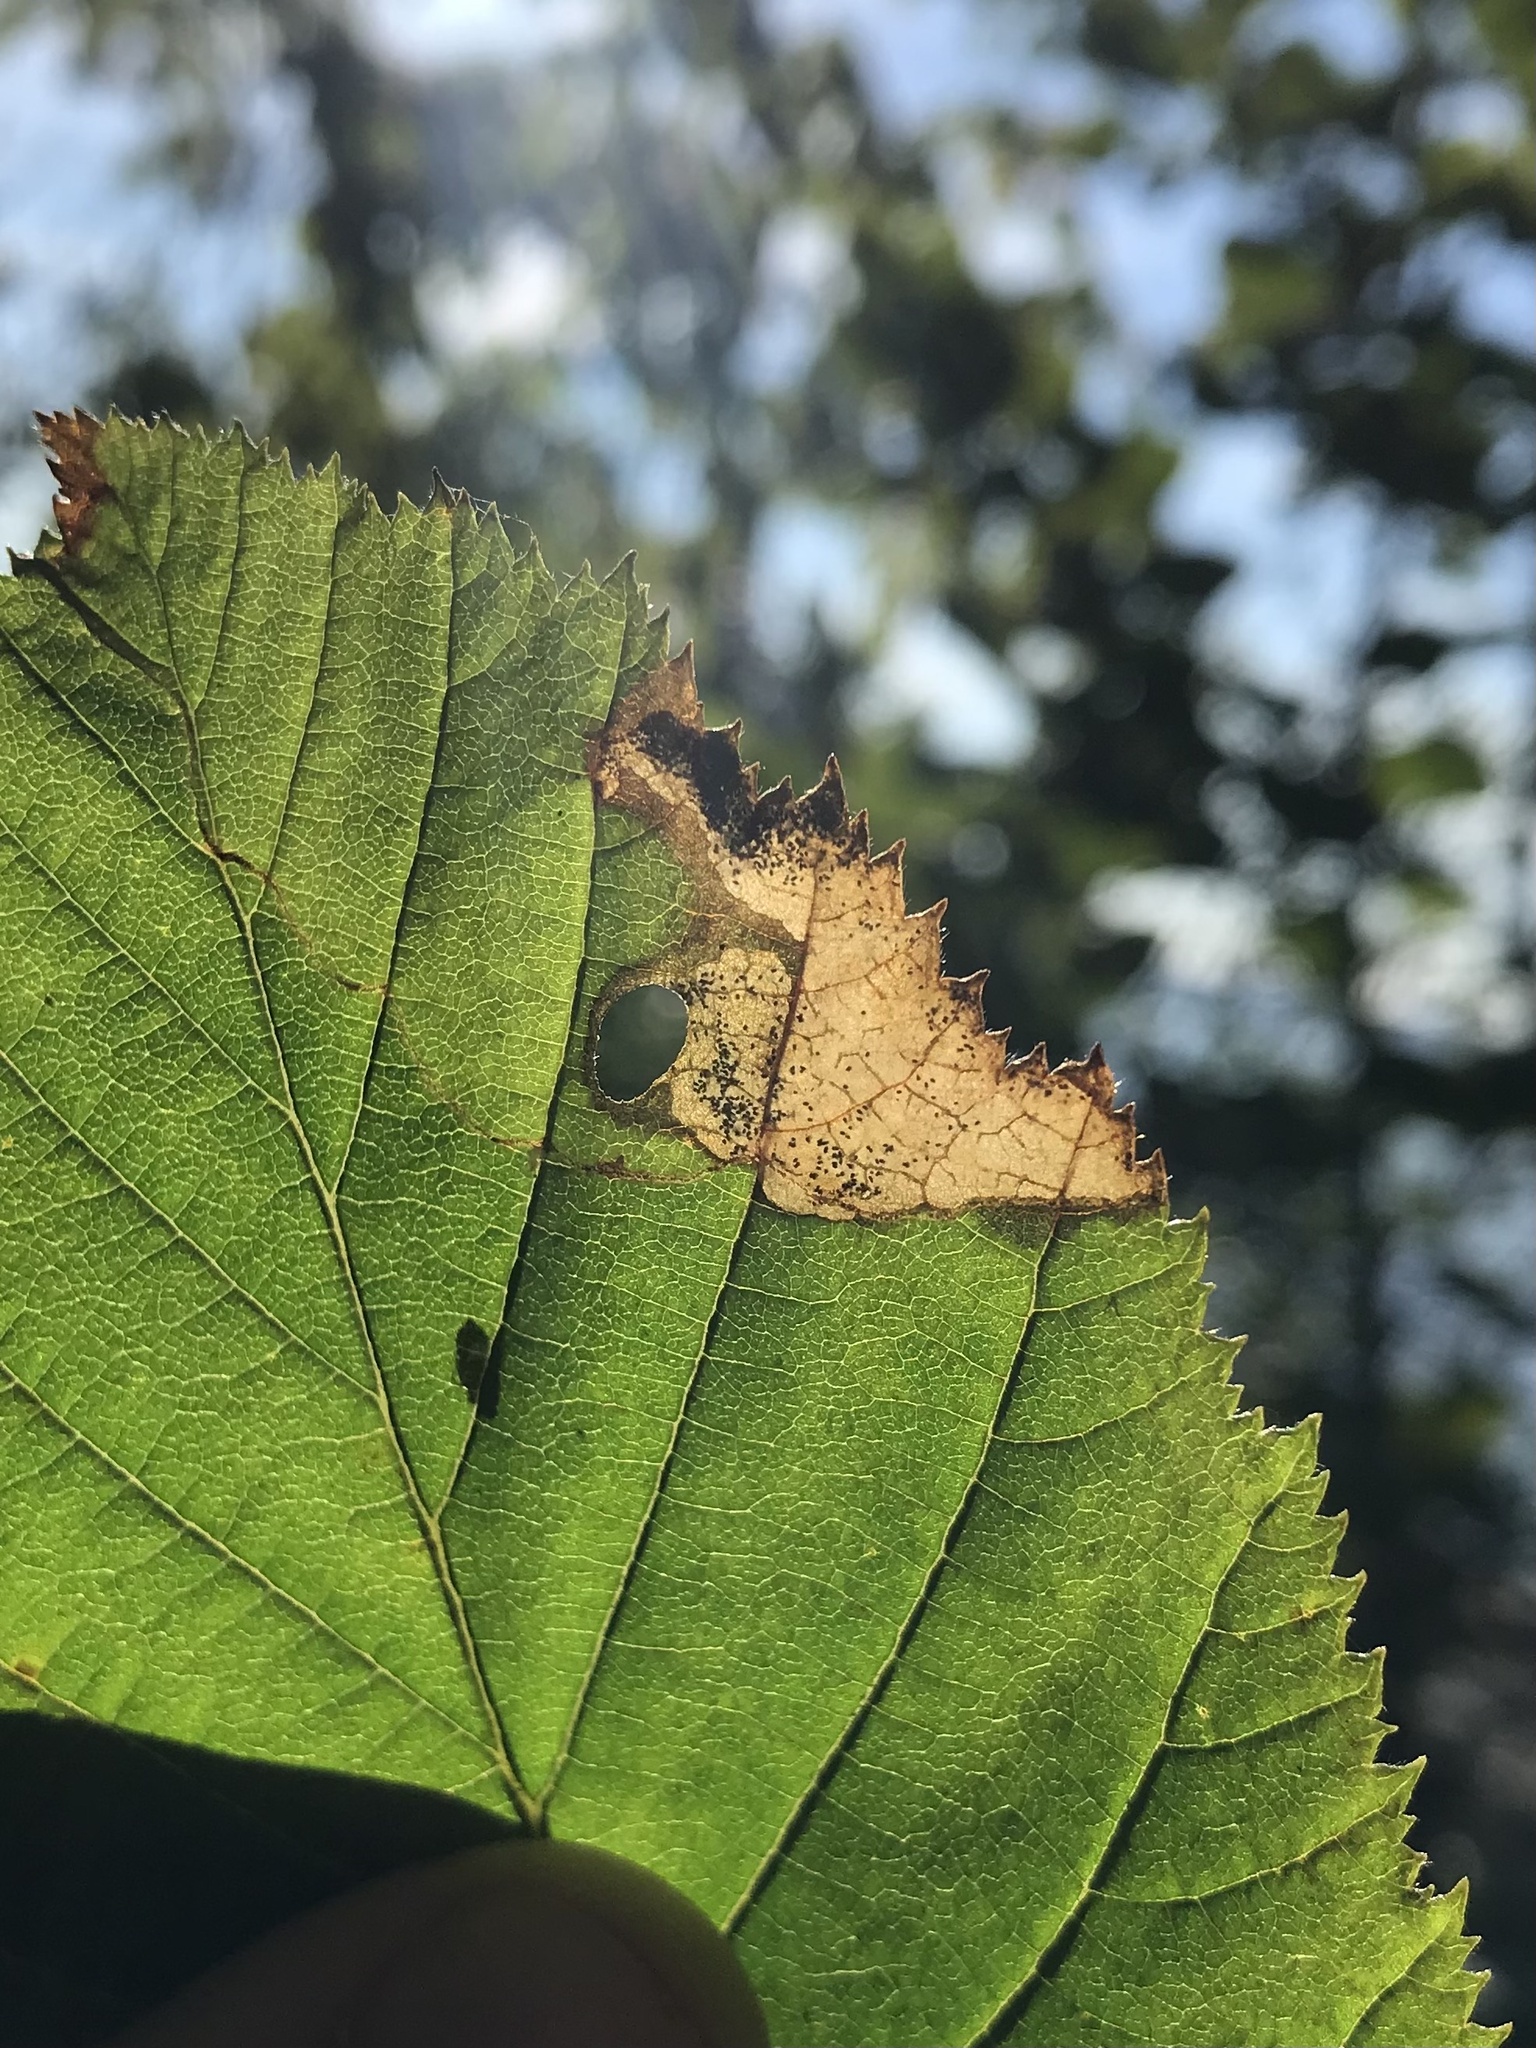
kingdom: Animalia
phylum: Arthropoda
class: Insecta
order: Lepidoptera
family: Incurvariidae
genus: Phylloporia
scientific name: Phylloporia bistrigella
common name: Striped bright
